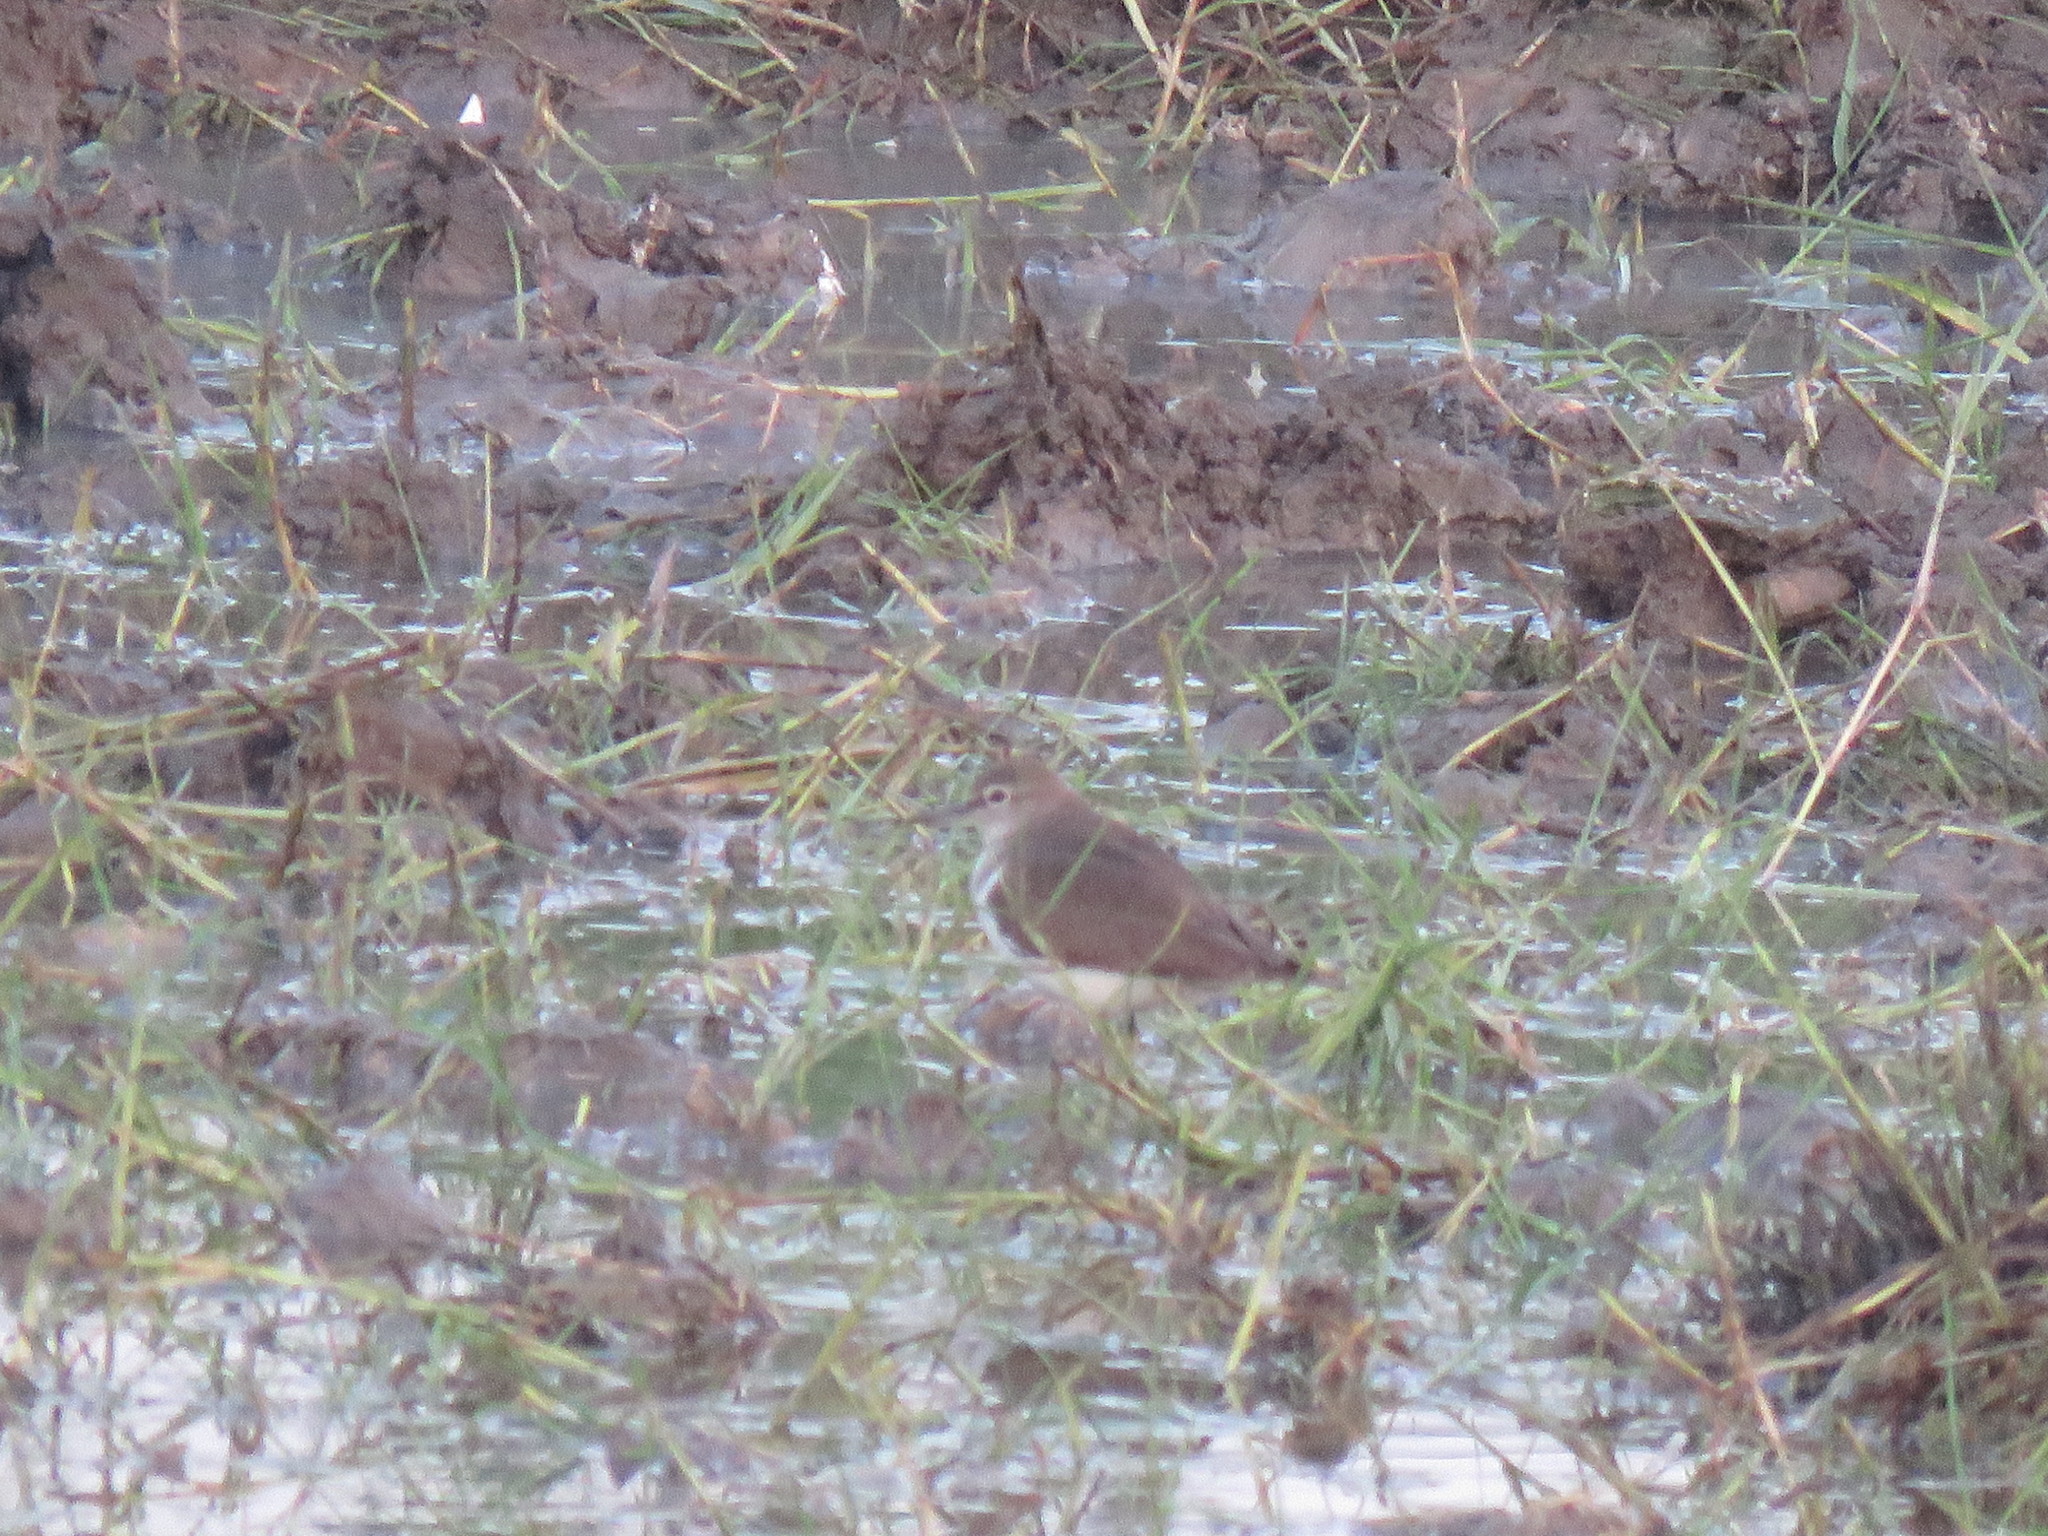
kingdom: Animalia
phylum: Chordata
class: Aves
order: Charadriiformes
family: Scolopacidae
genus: Actitis
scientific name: Actitis hypoleucos
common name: Common sandpiper
